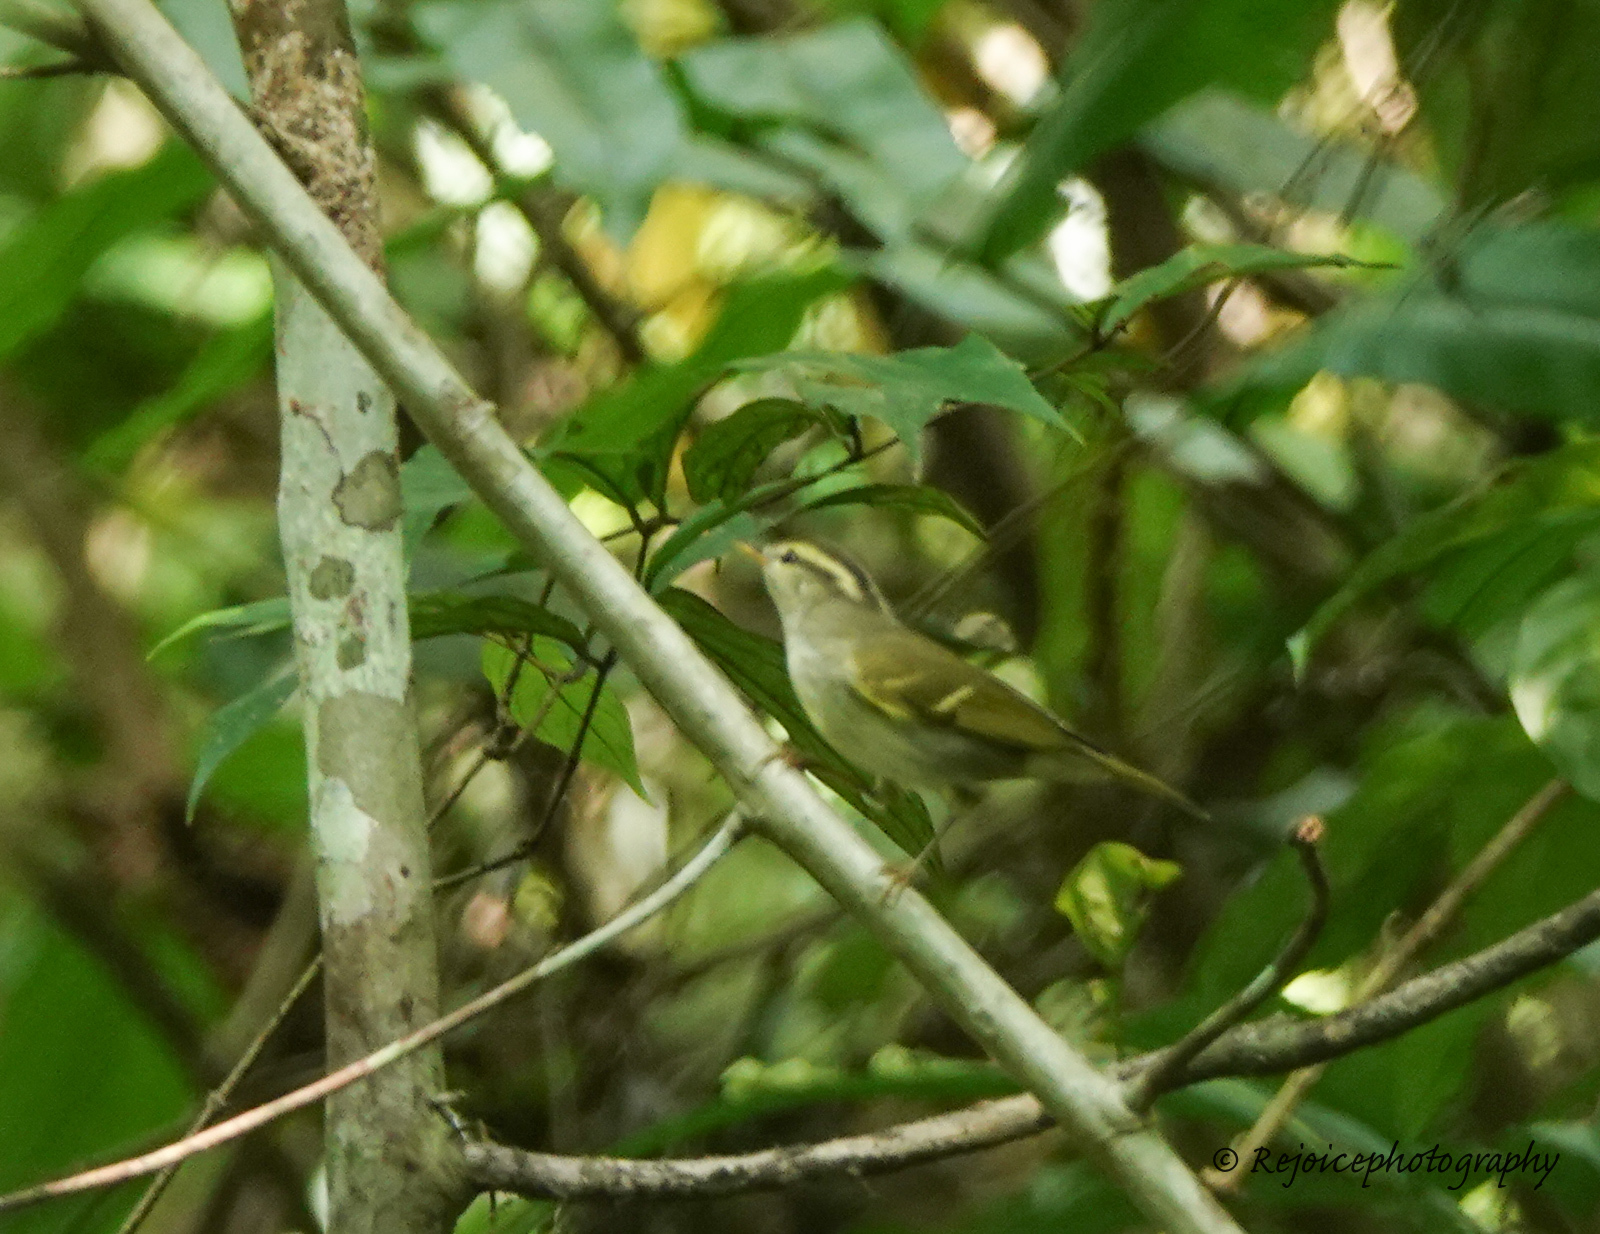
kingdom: Animalia
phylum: Chordata
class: Aves
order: Passeriformes
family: Phylloscopidae
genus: Phylloscopus
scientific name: Phylloscopus reguloides
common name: Blyth's leaf warbler
